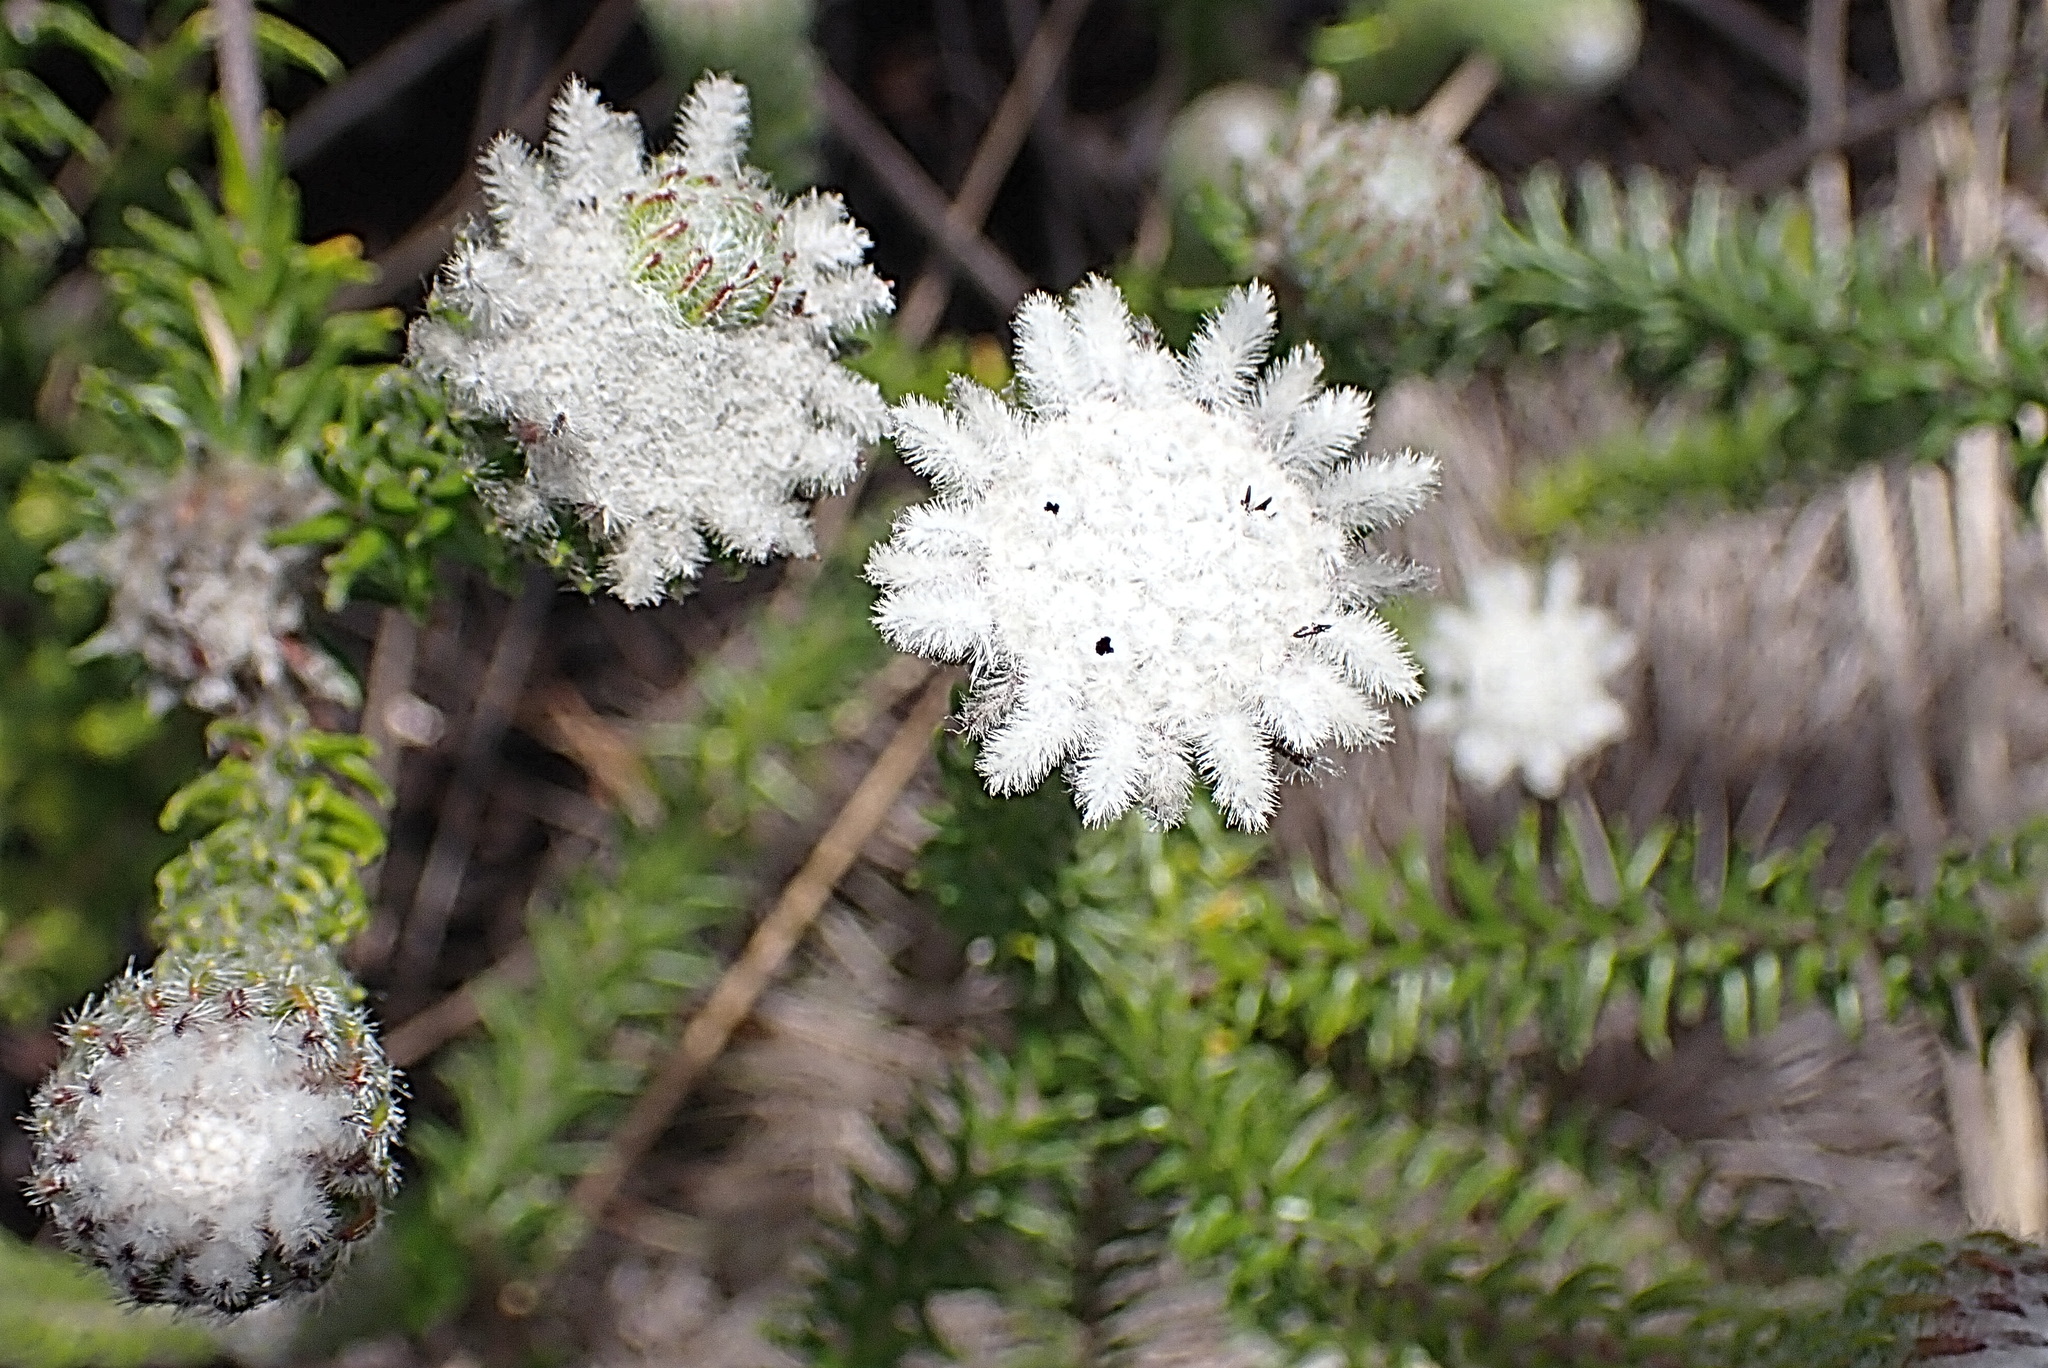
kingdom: Plantae
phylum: Tracheophyta
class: Magnoliopsida
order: Rosales
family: Rhamnaceae
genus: Phylica
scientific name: Phylica curvifolia
